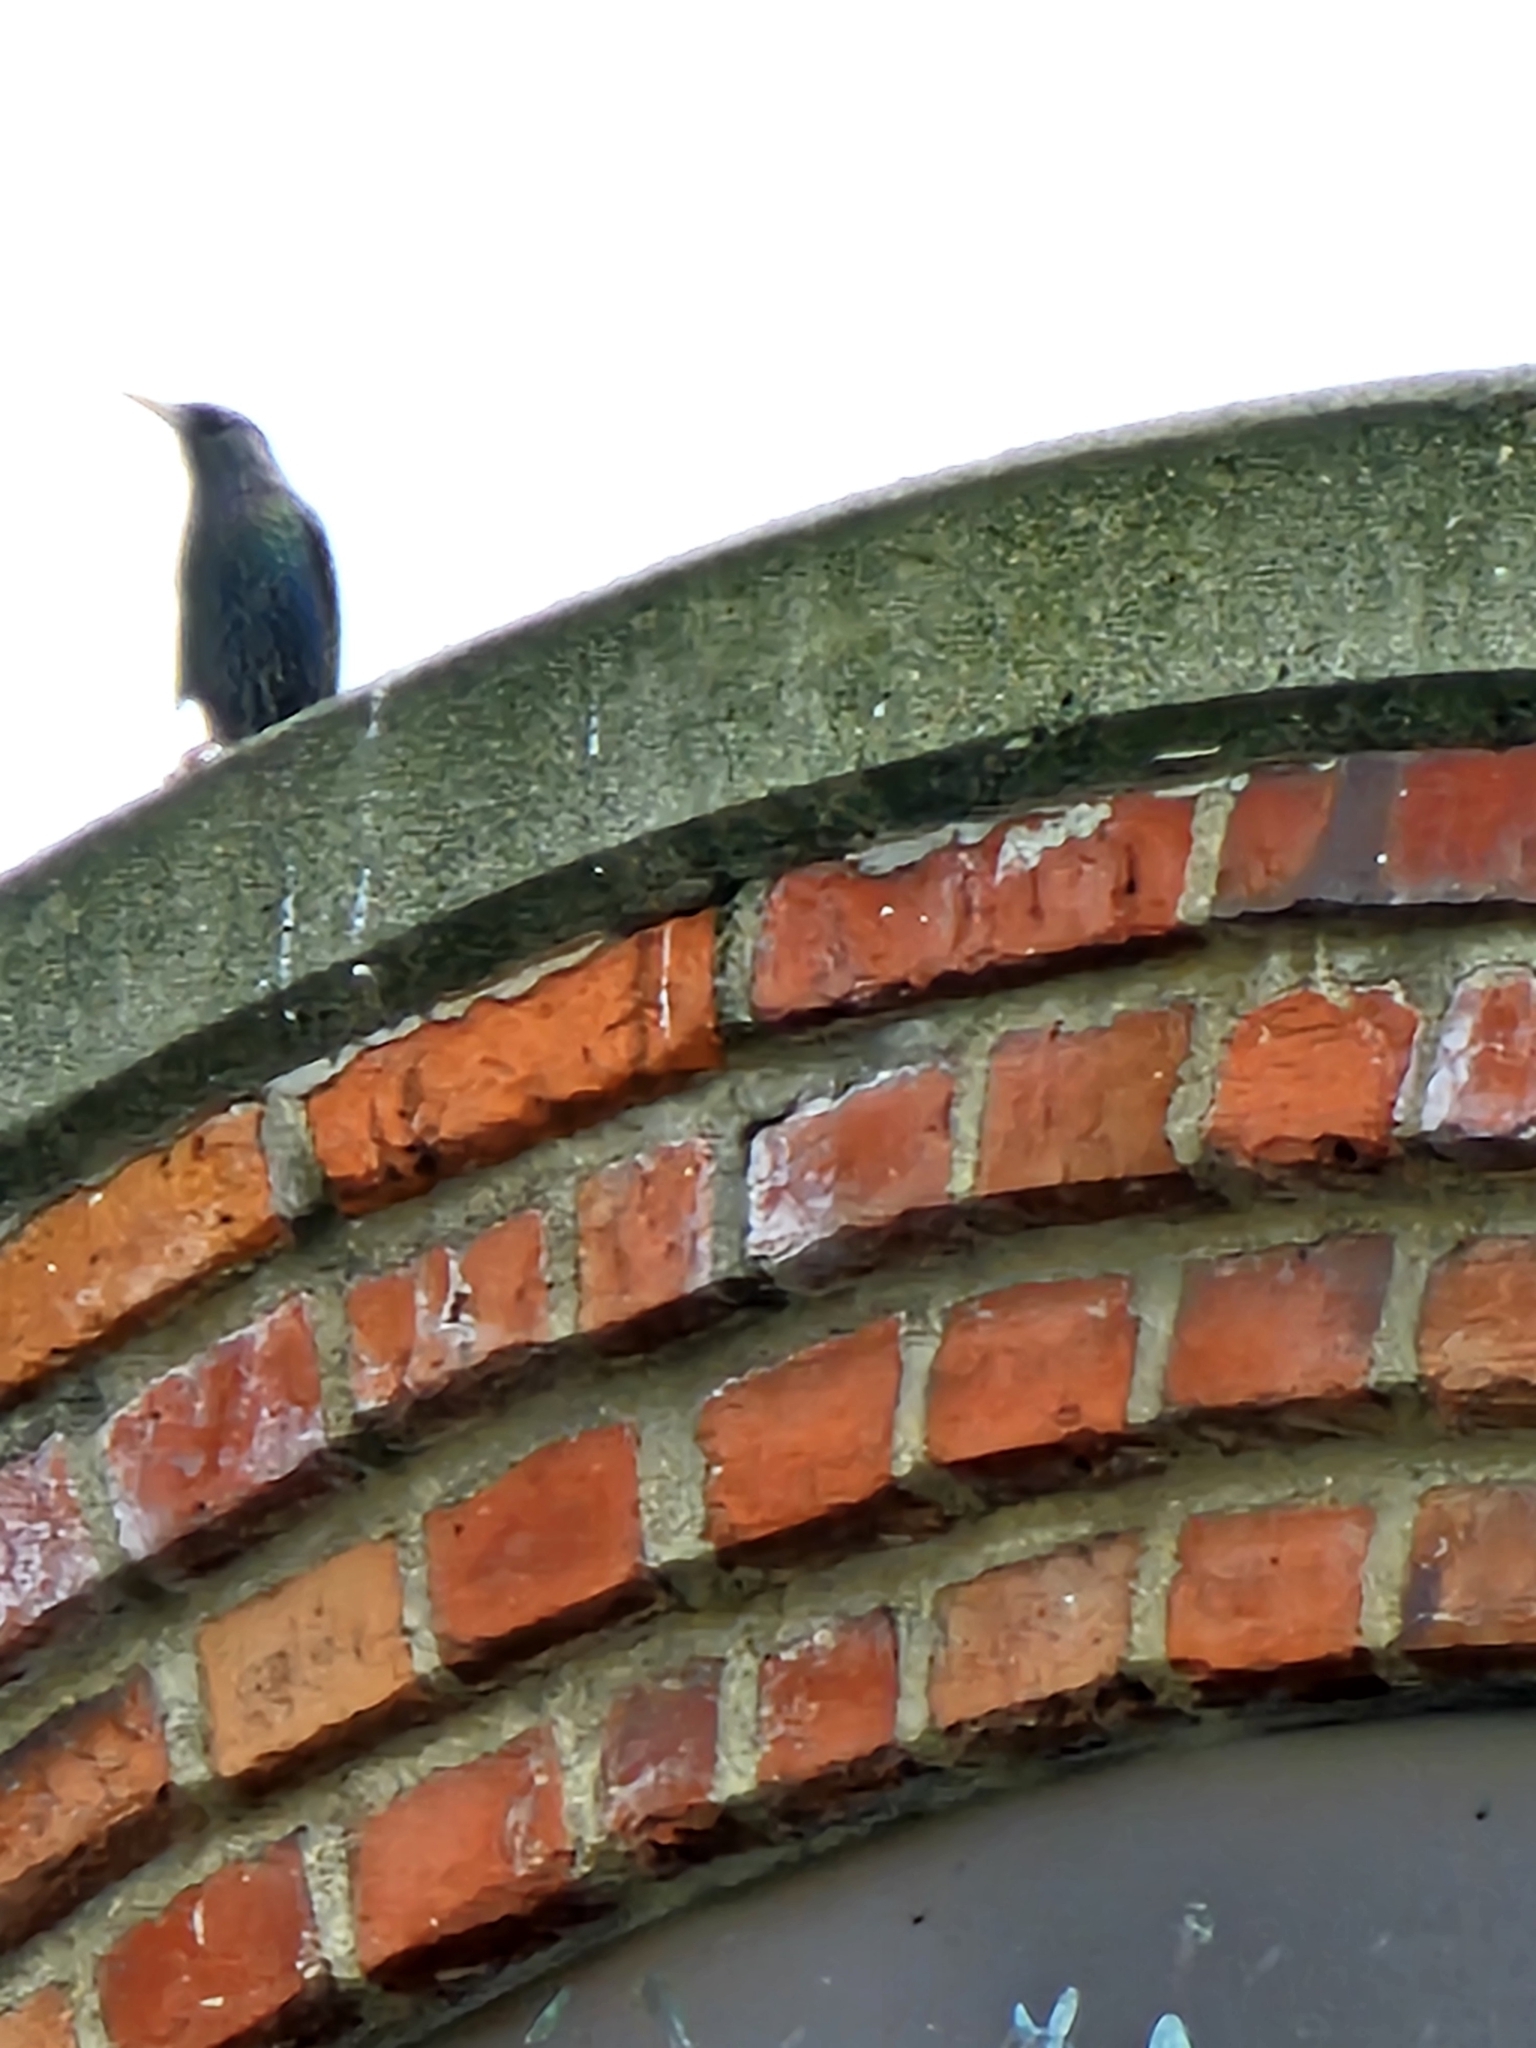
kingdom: Animalia
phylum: Chordata
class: Aves
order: Passeriformes
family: Sturnidae
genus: Sturnus
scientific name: Sturnus vulgaris
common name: Common starling
